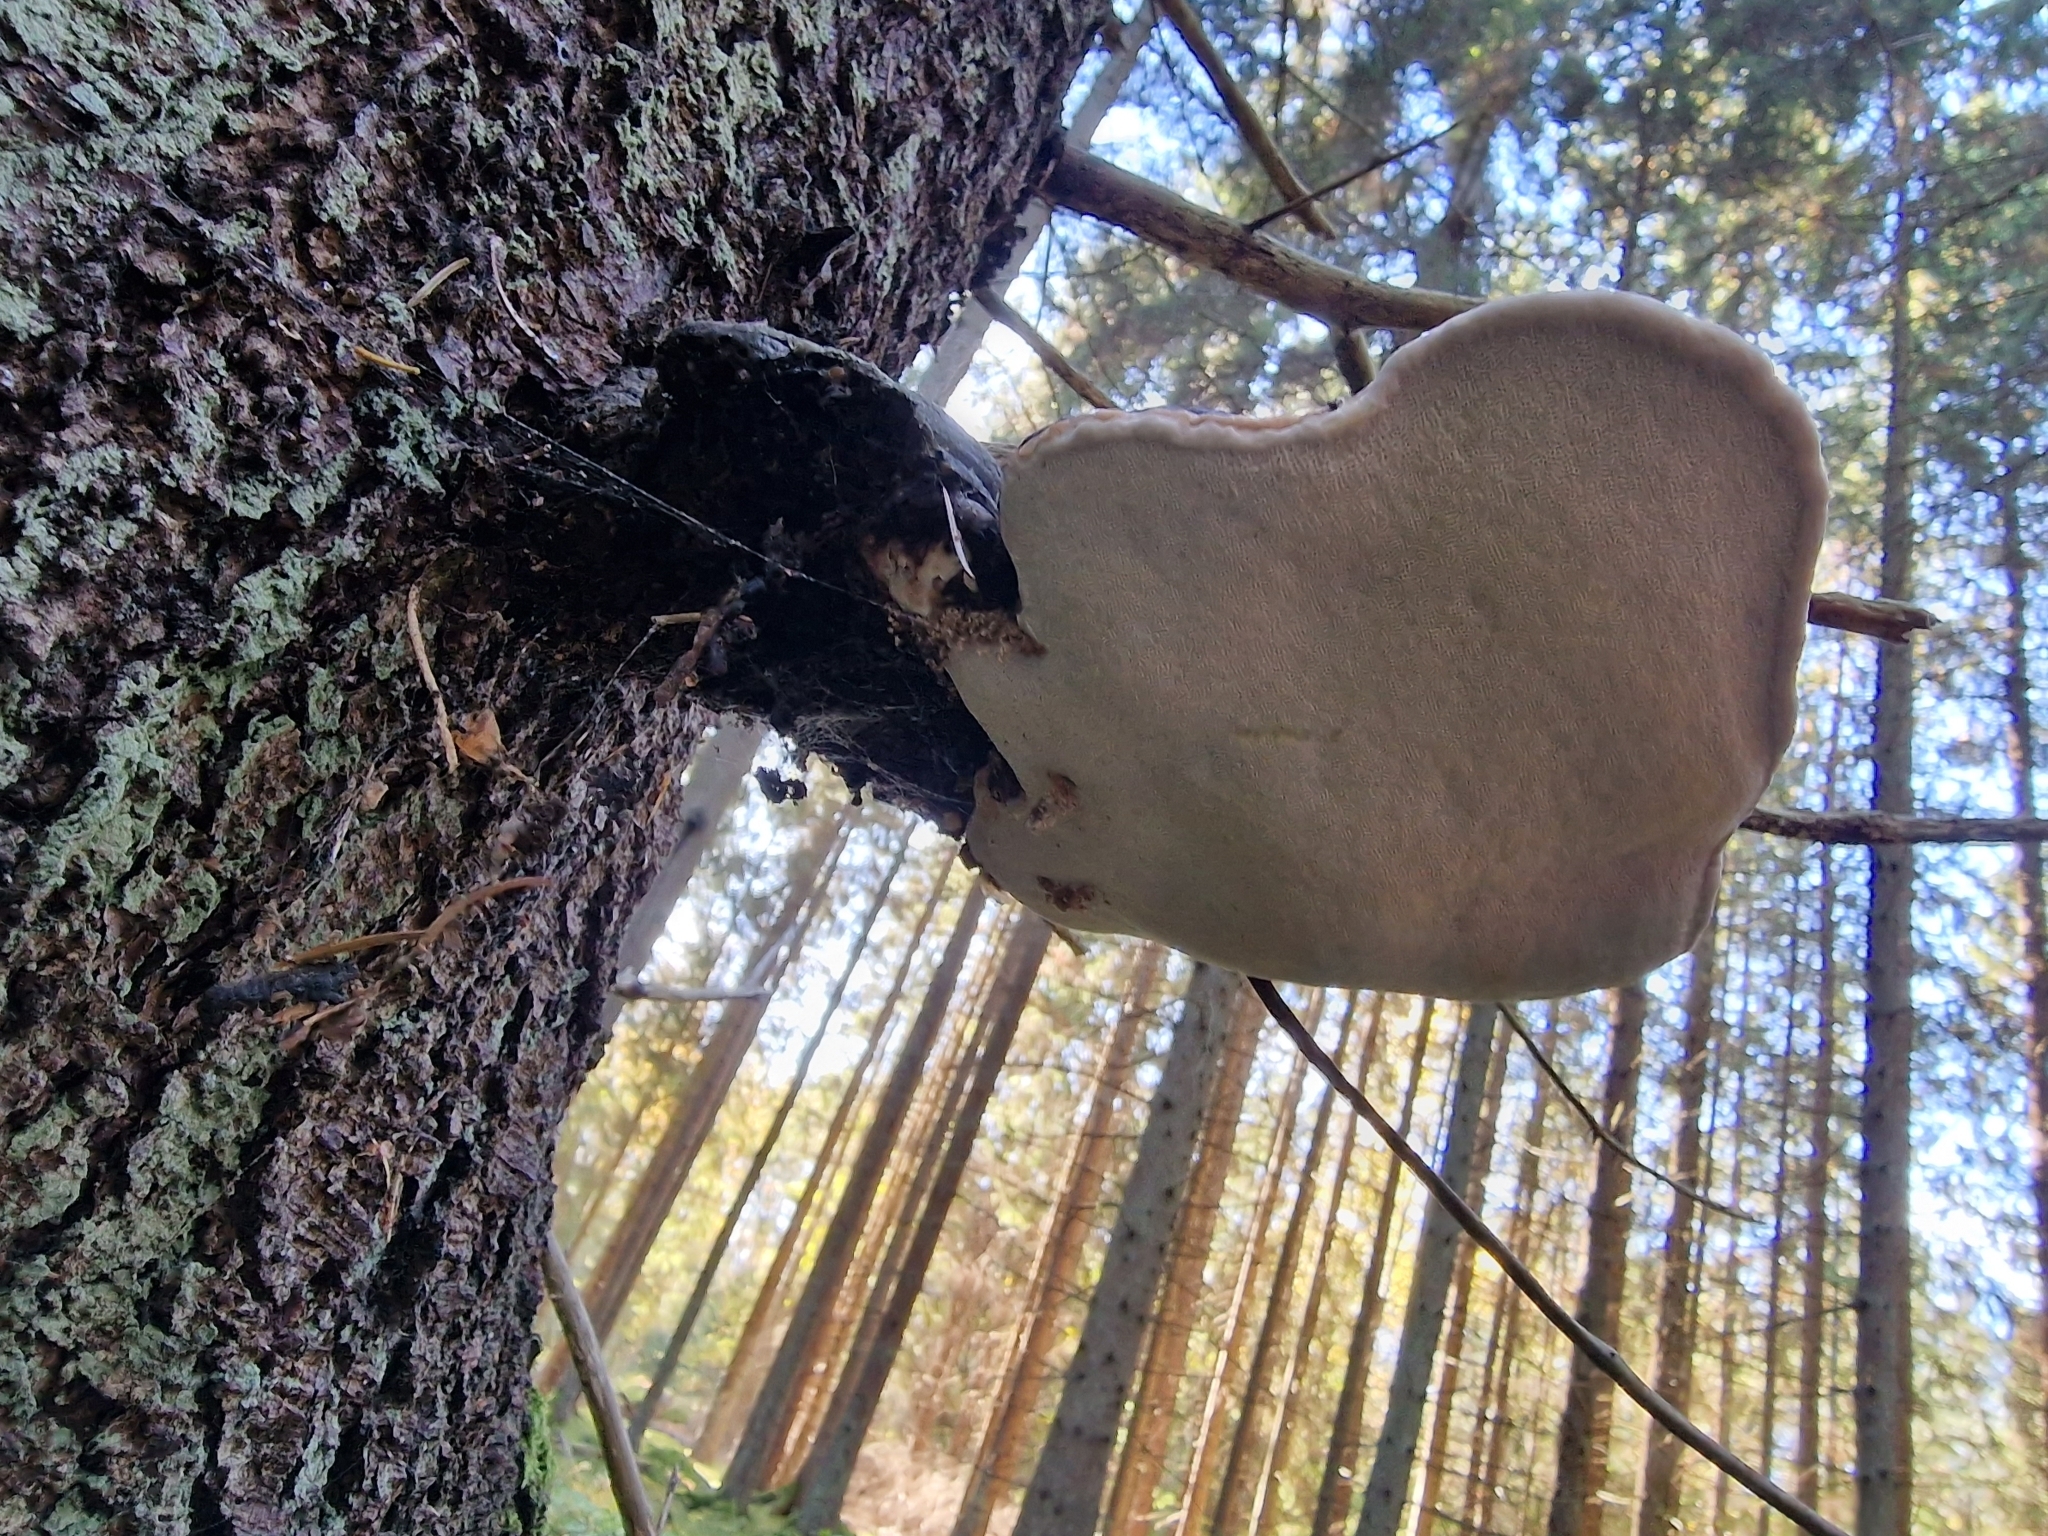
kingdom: Fungi
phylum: Basidiomycota
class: Agaricomycetes
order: Polyporales
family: Fomitopsidaceae
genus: Fomitopsis
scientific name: Fomitopsis pinicola
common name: Red-belted bracket
